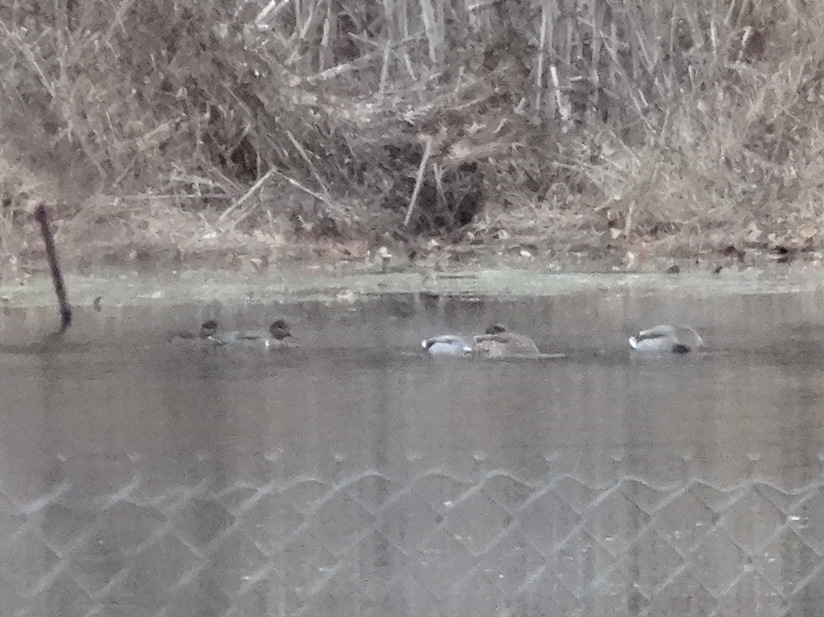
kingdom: Animalia
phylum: Chordata
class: Aves
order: Anseriformes
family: Anatidae
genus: Anas
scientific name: Anas crecca
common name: Eurasian teal
